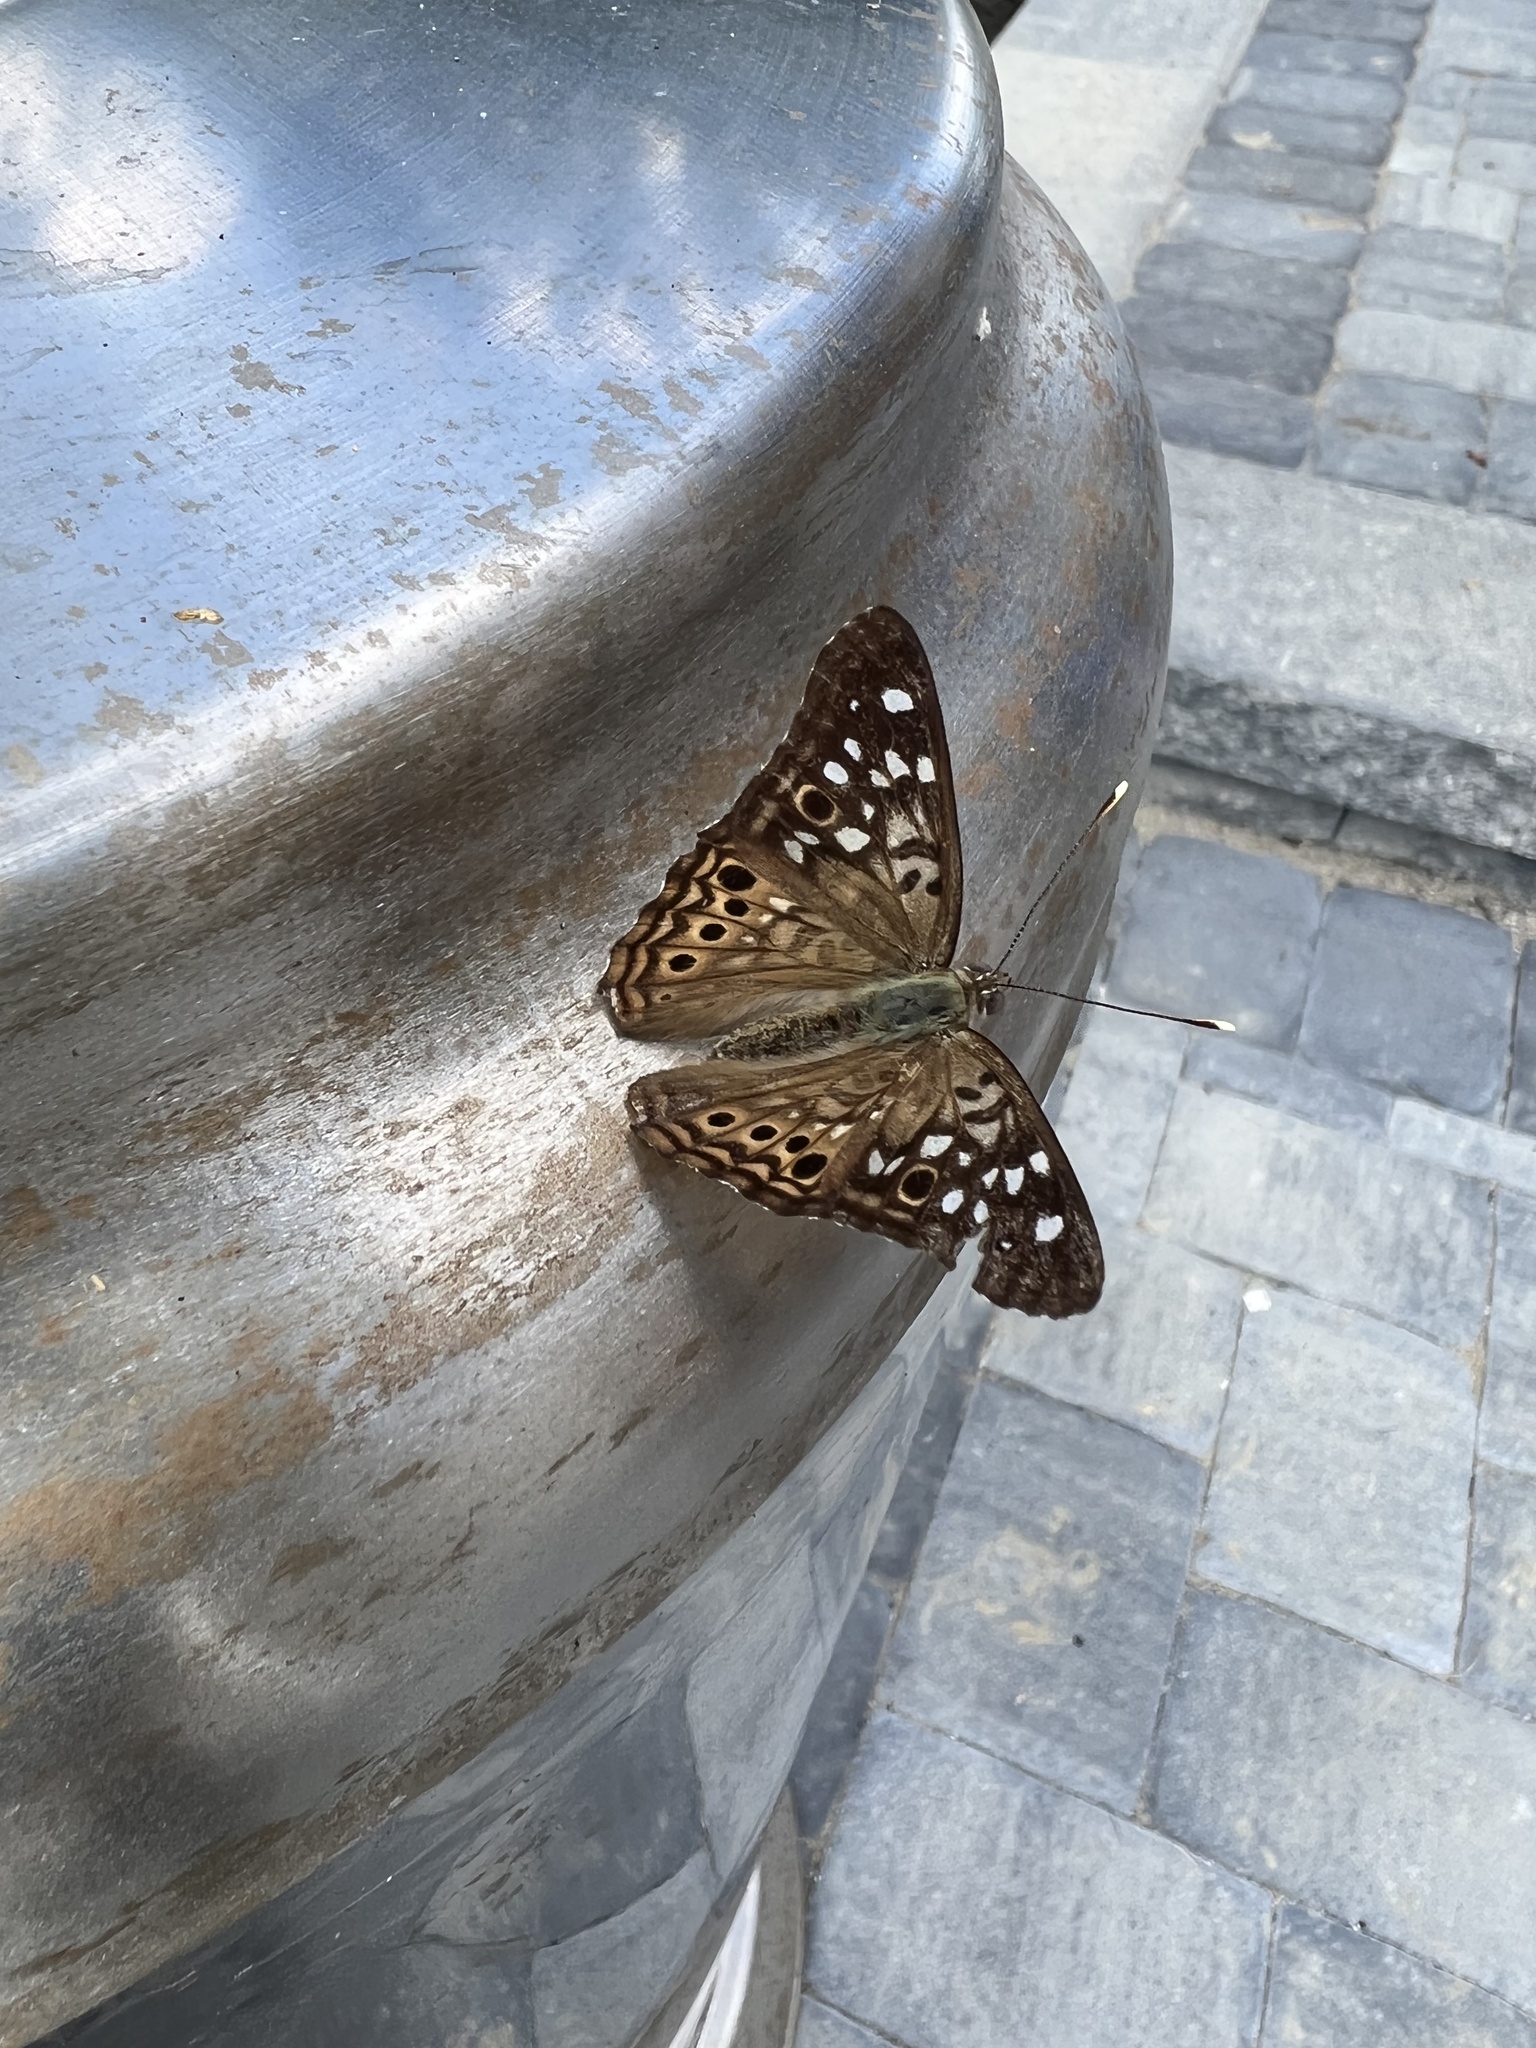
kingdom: Animalia
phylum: Arthropoda
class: Insecta
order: Lepidoptera
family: Nymphalidae
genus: Asterocampa
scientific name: Asterocampa celtis
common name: Hackberry emperor
